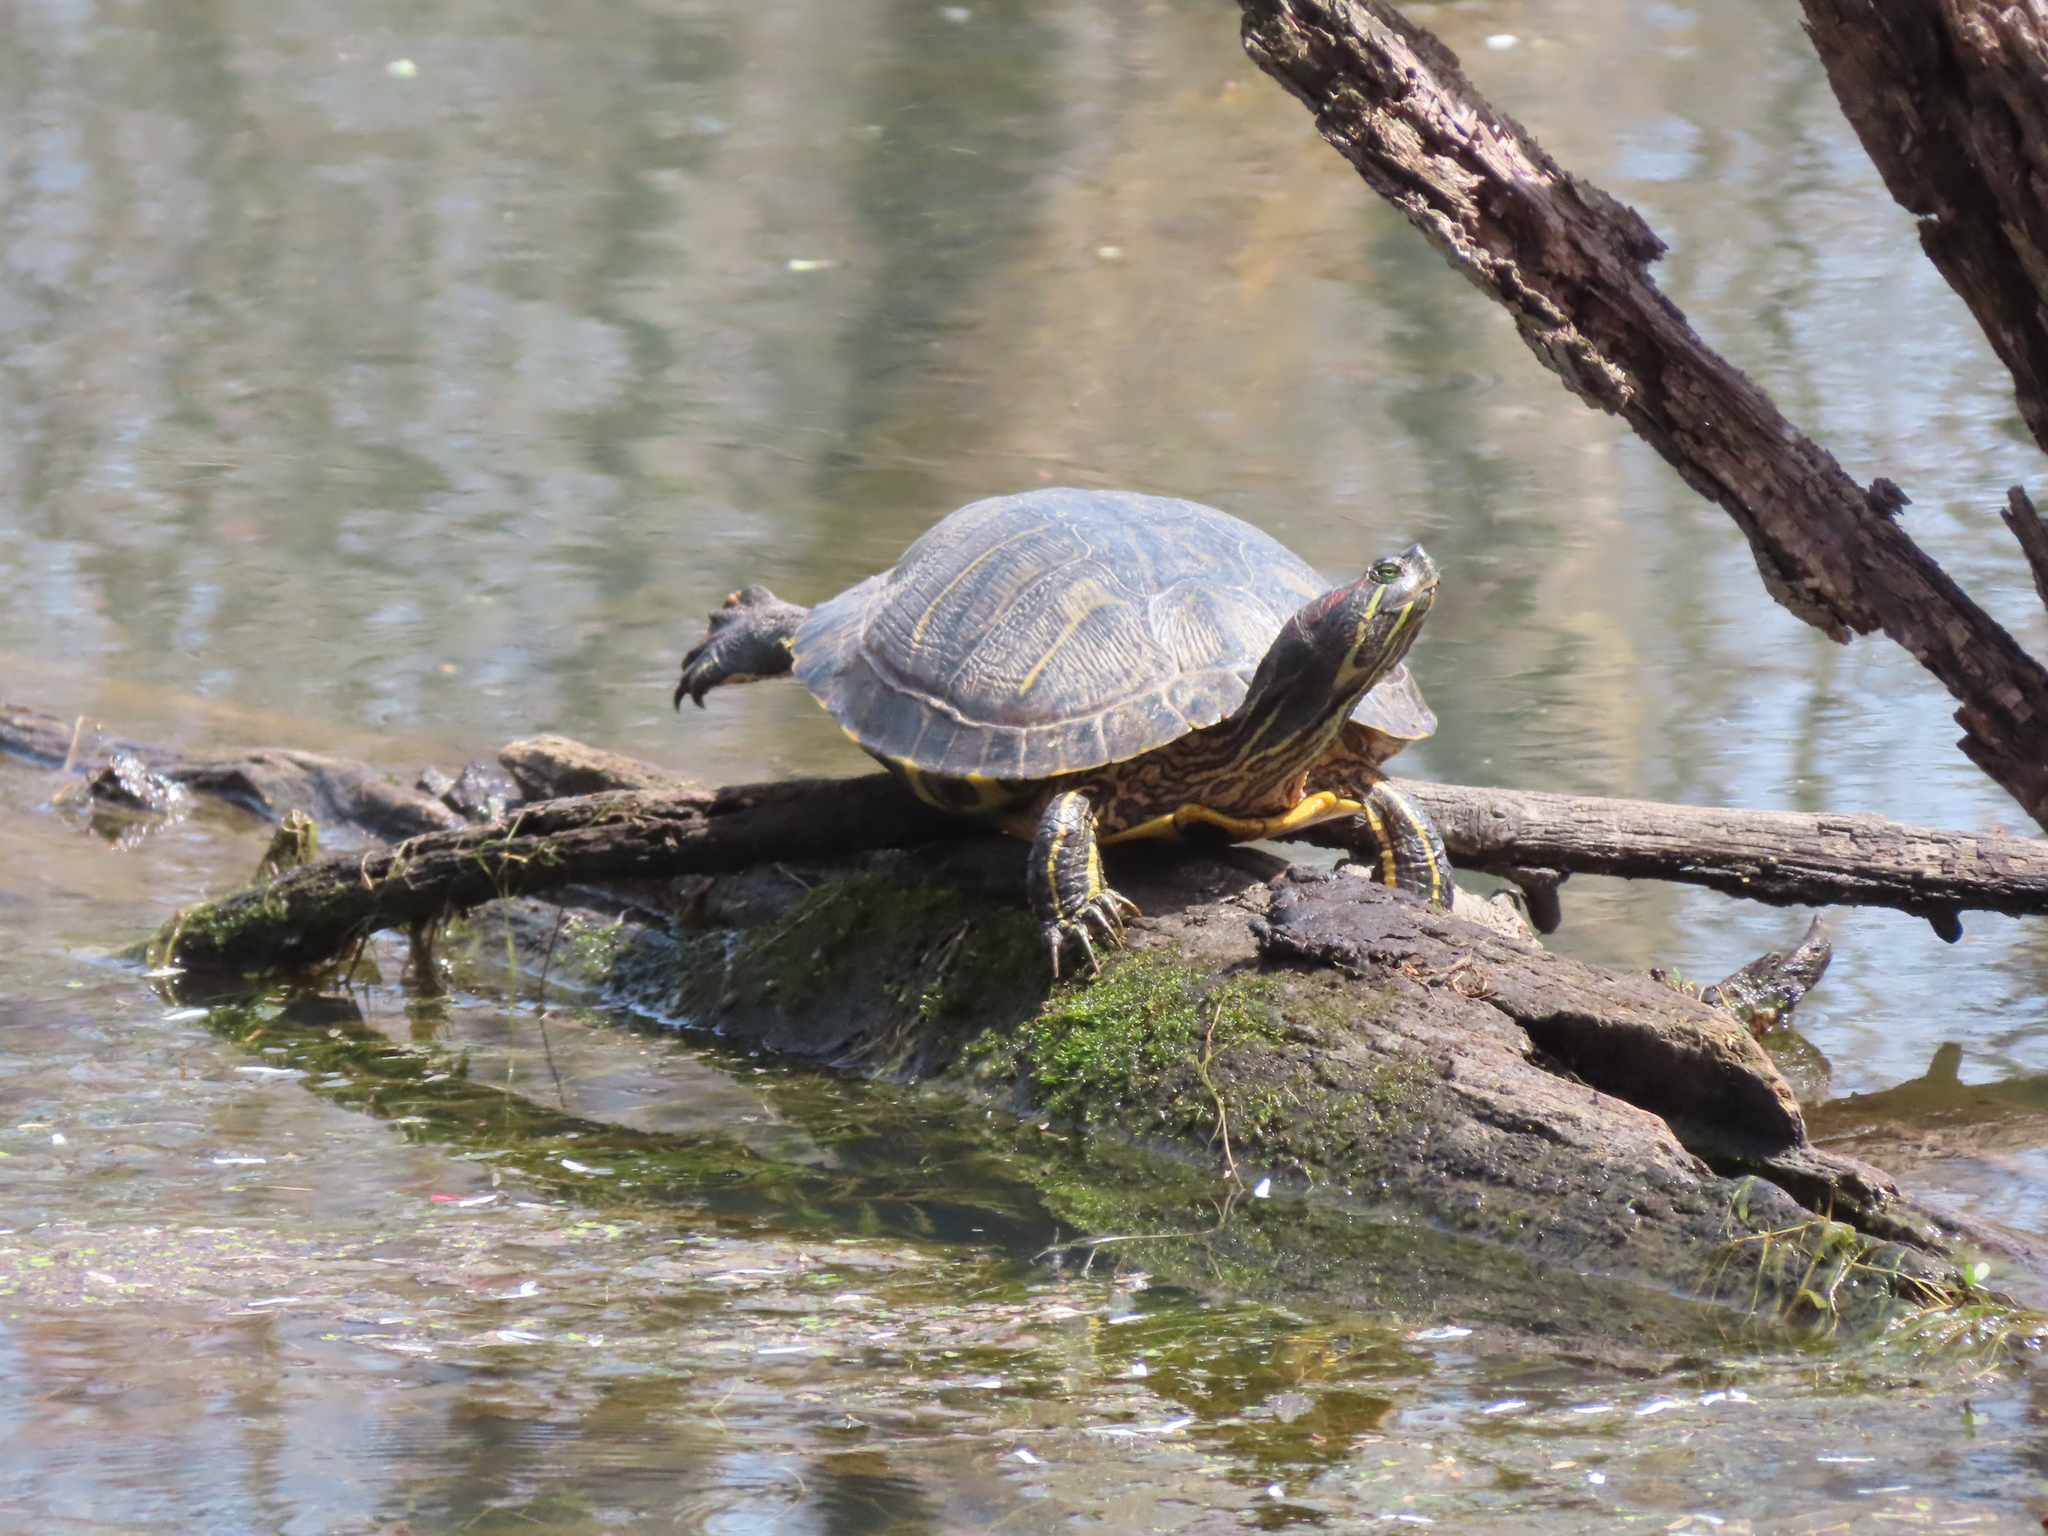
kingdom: Animalia
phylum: Chordata
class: Testudines
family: Emydidae
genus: Trachemys
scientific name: Trachemys scripta
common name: Slider
